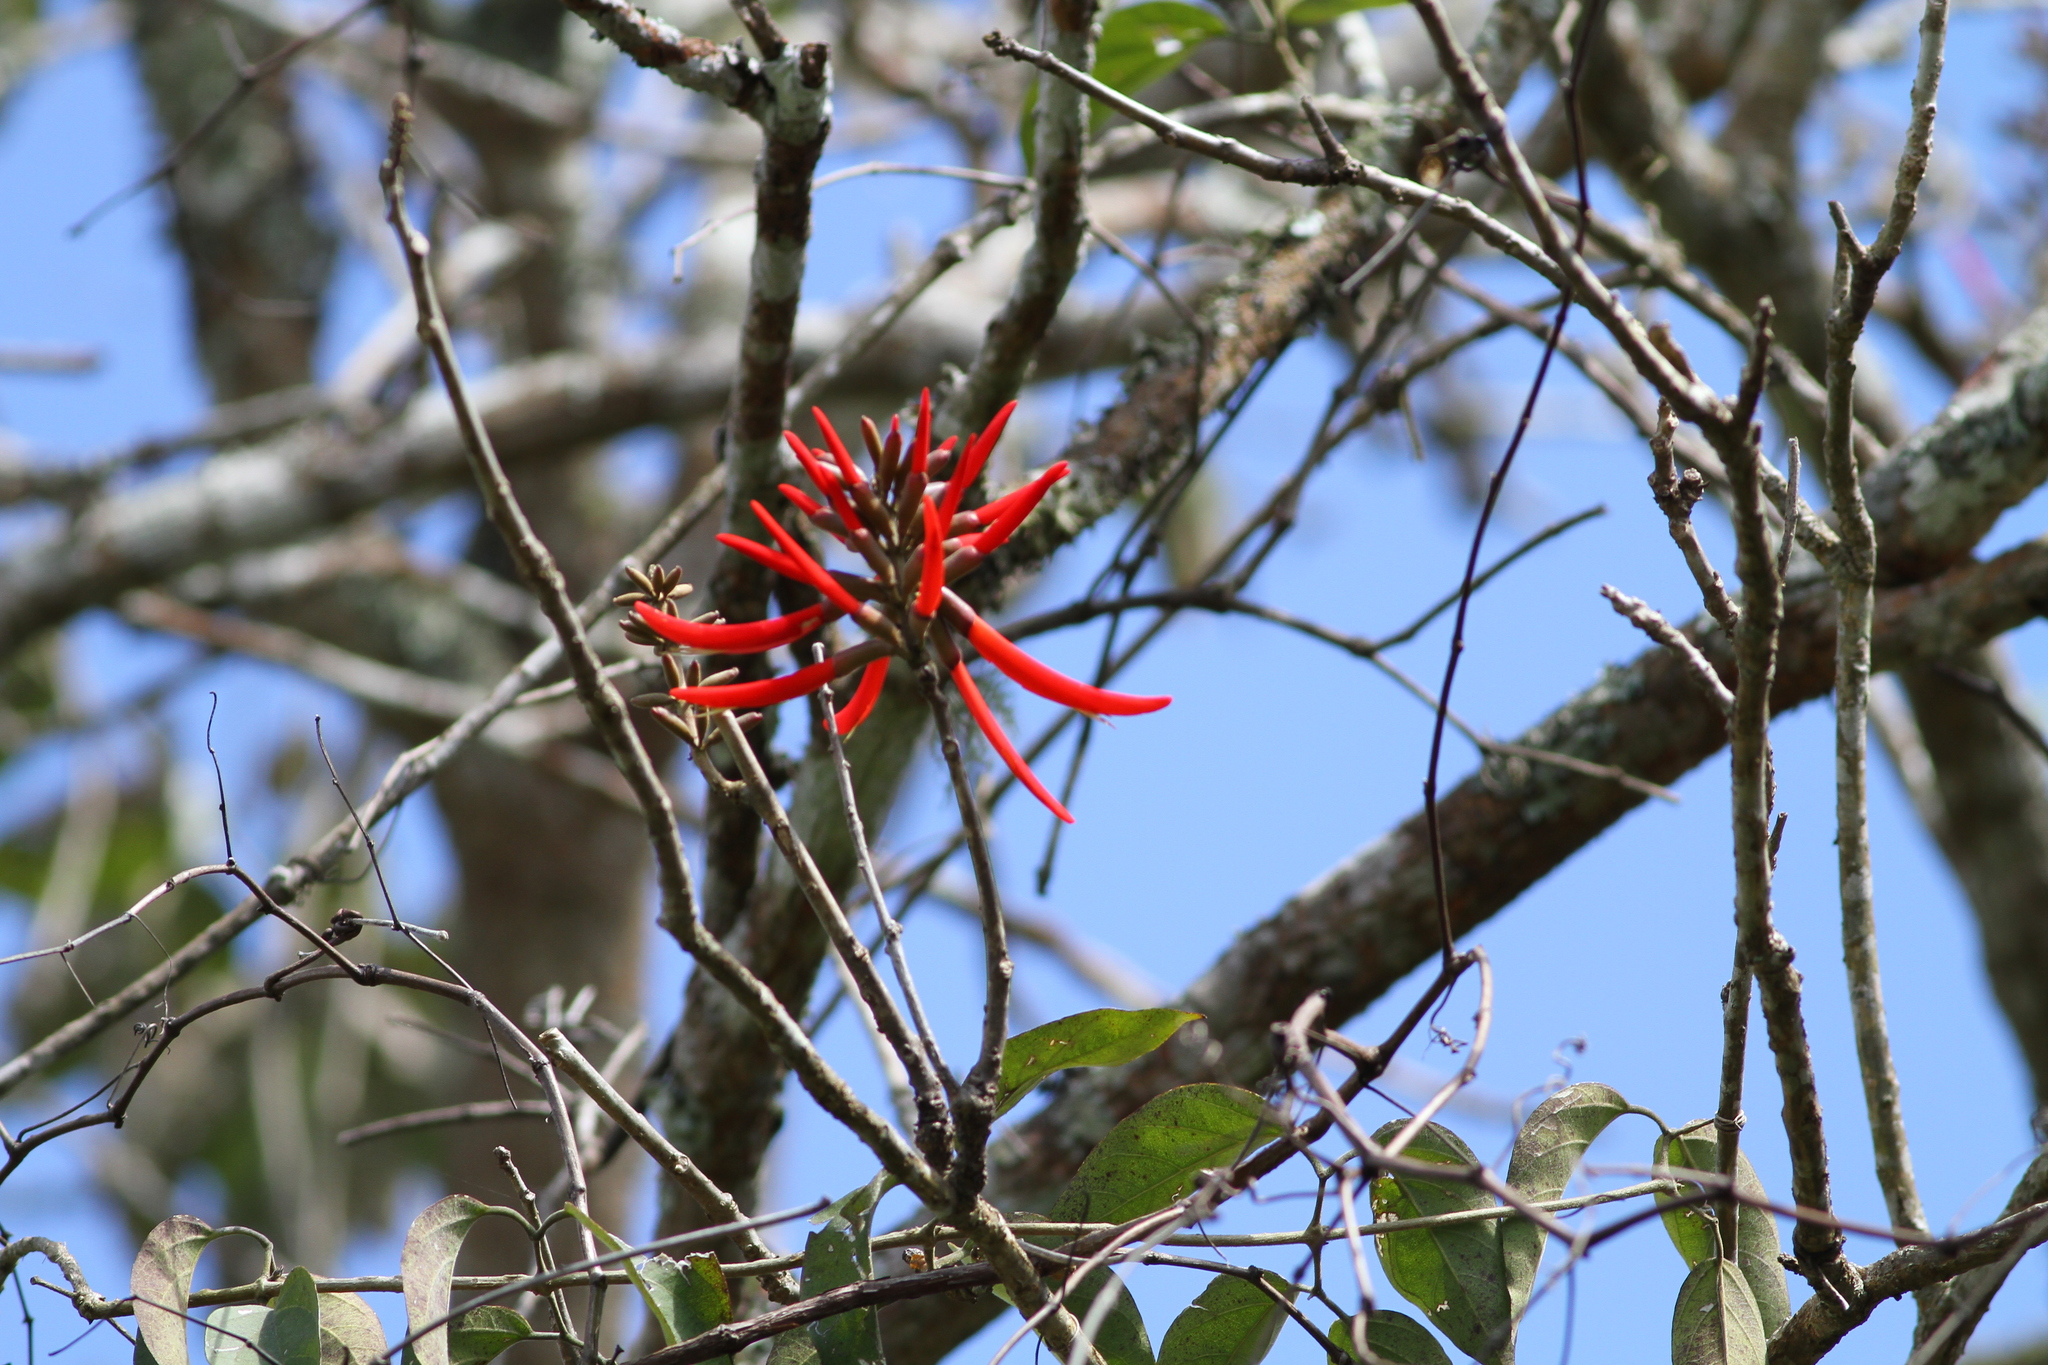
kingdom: Plantae
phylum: Tracheophyta
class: Magnoliopsida
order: Fabales
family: Fabaceae
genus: Erythrina
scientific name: Erythrina chiapasana
